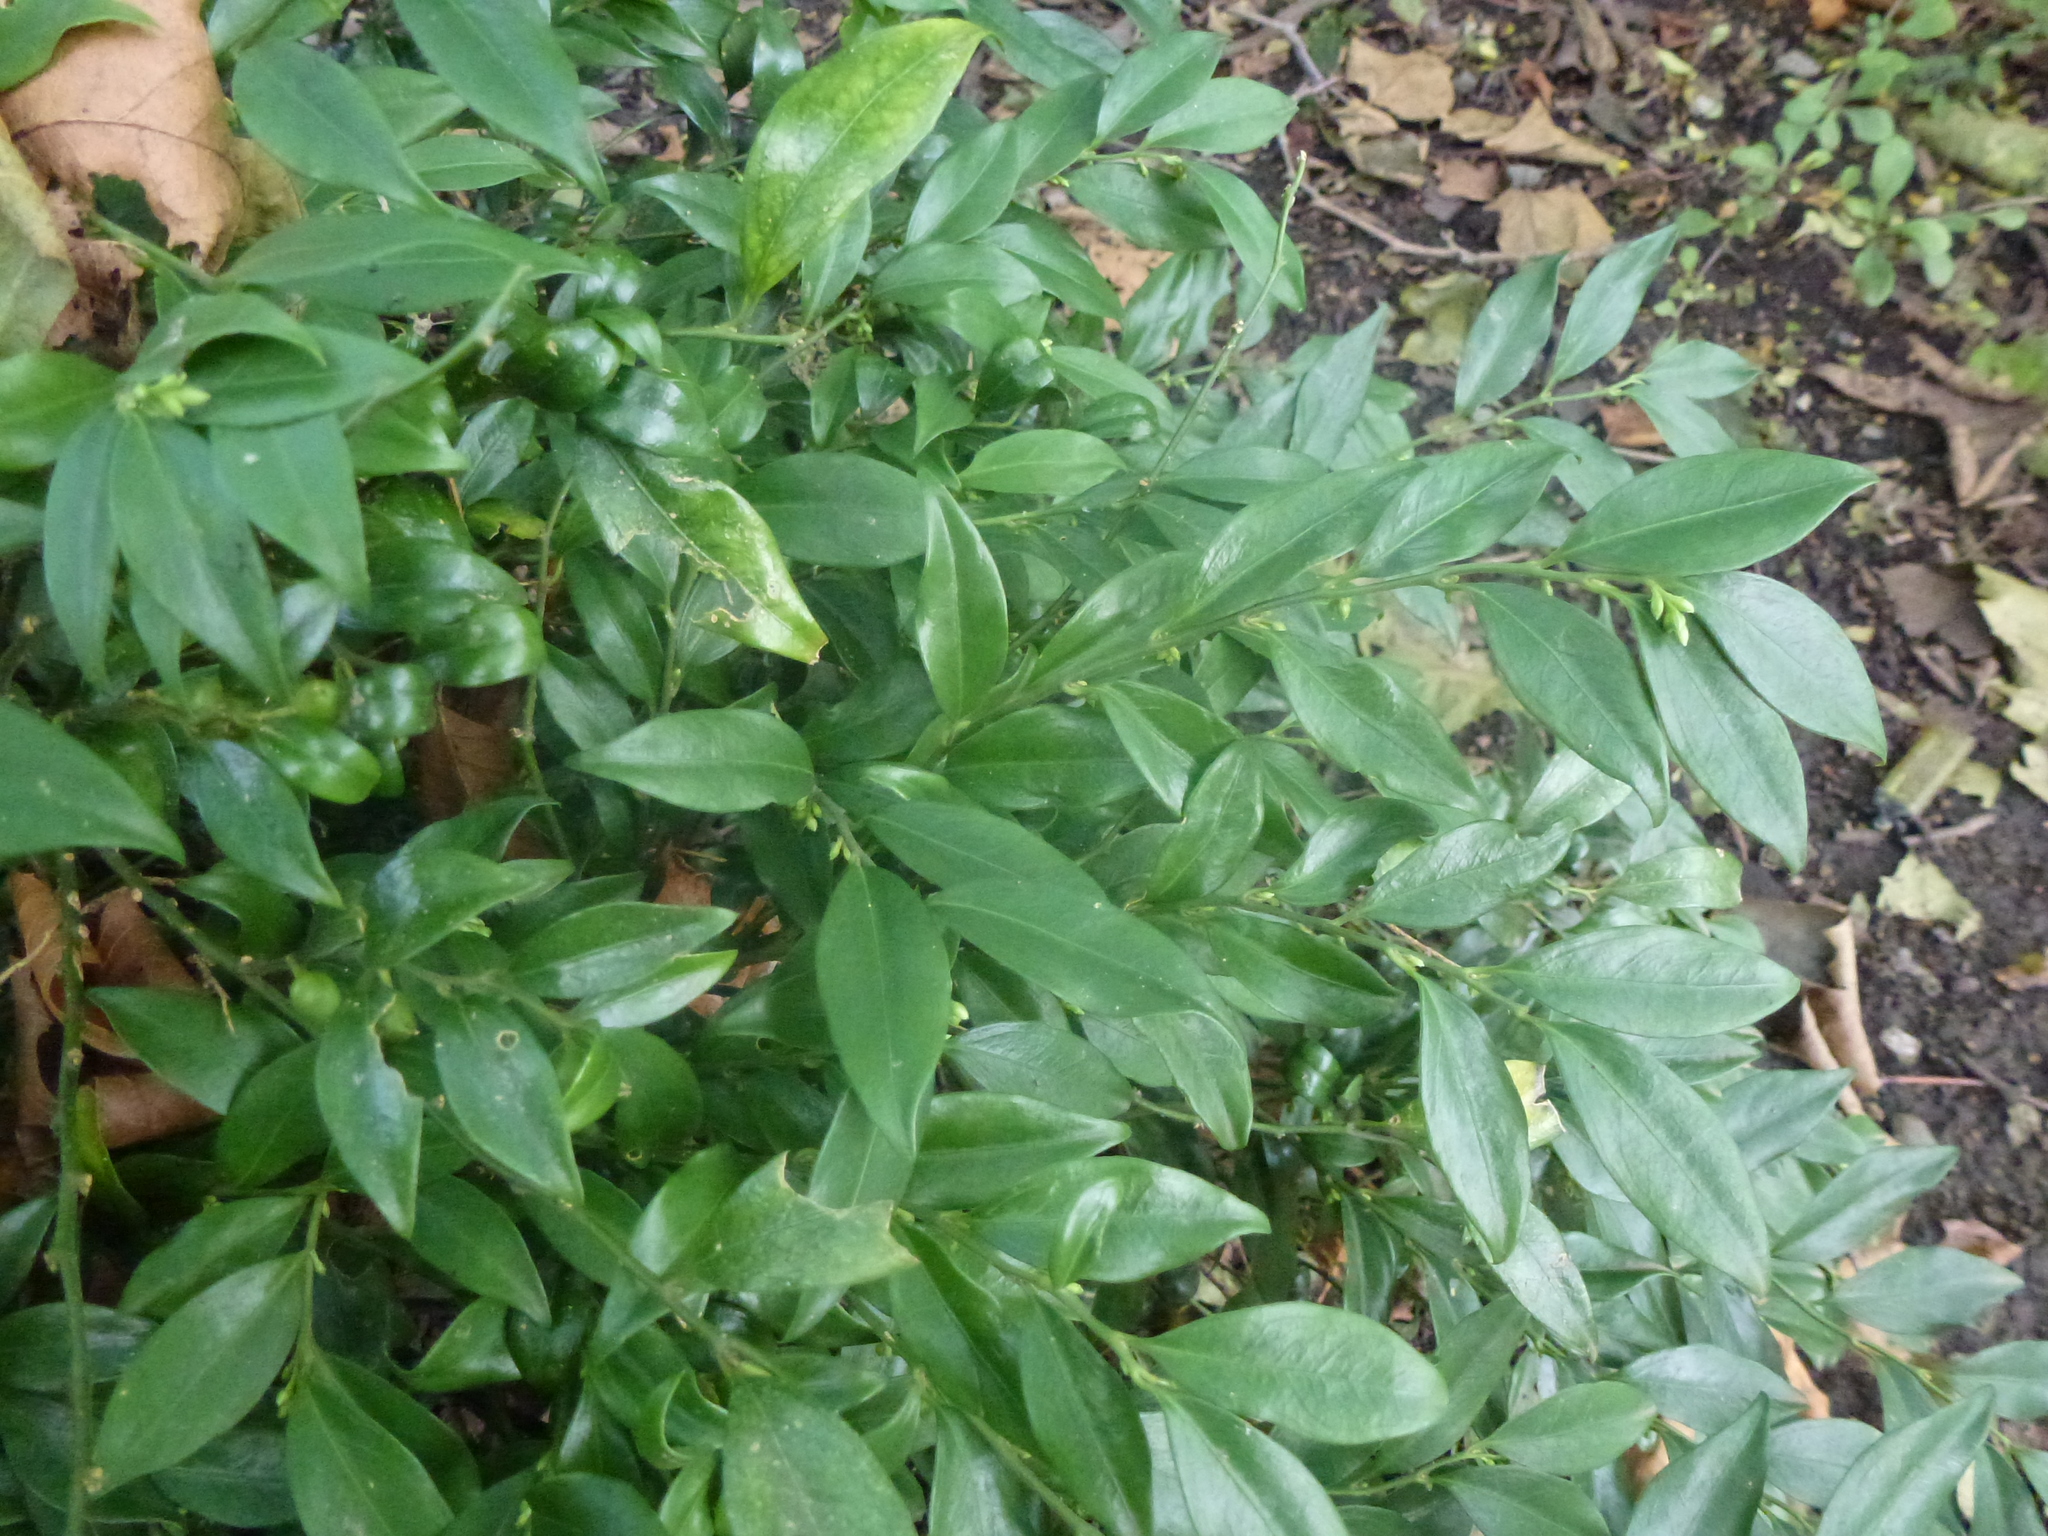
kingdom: Plantae
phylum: Tracheophyta
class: Magnoliopsida
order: Buxales
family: Buxaceae
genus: Sarcococca
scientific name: Sarcococca confusa
